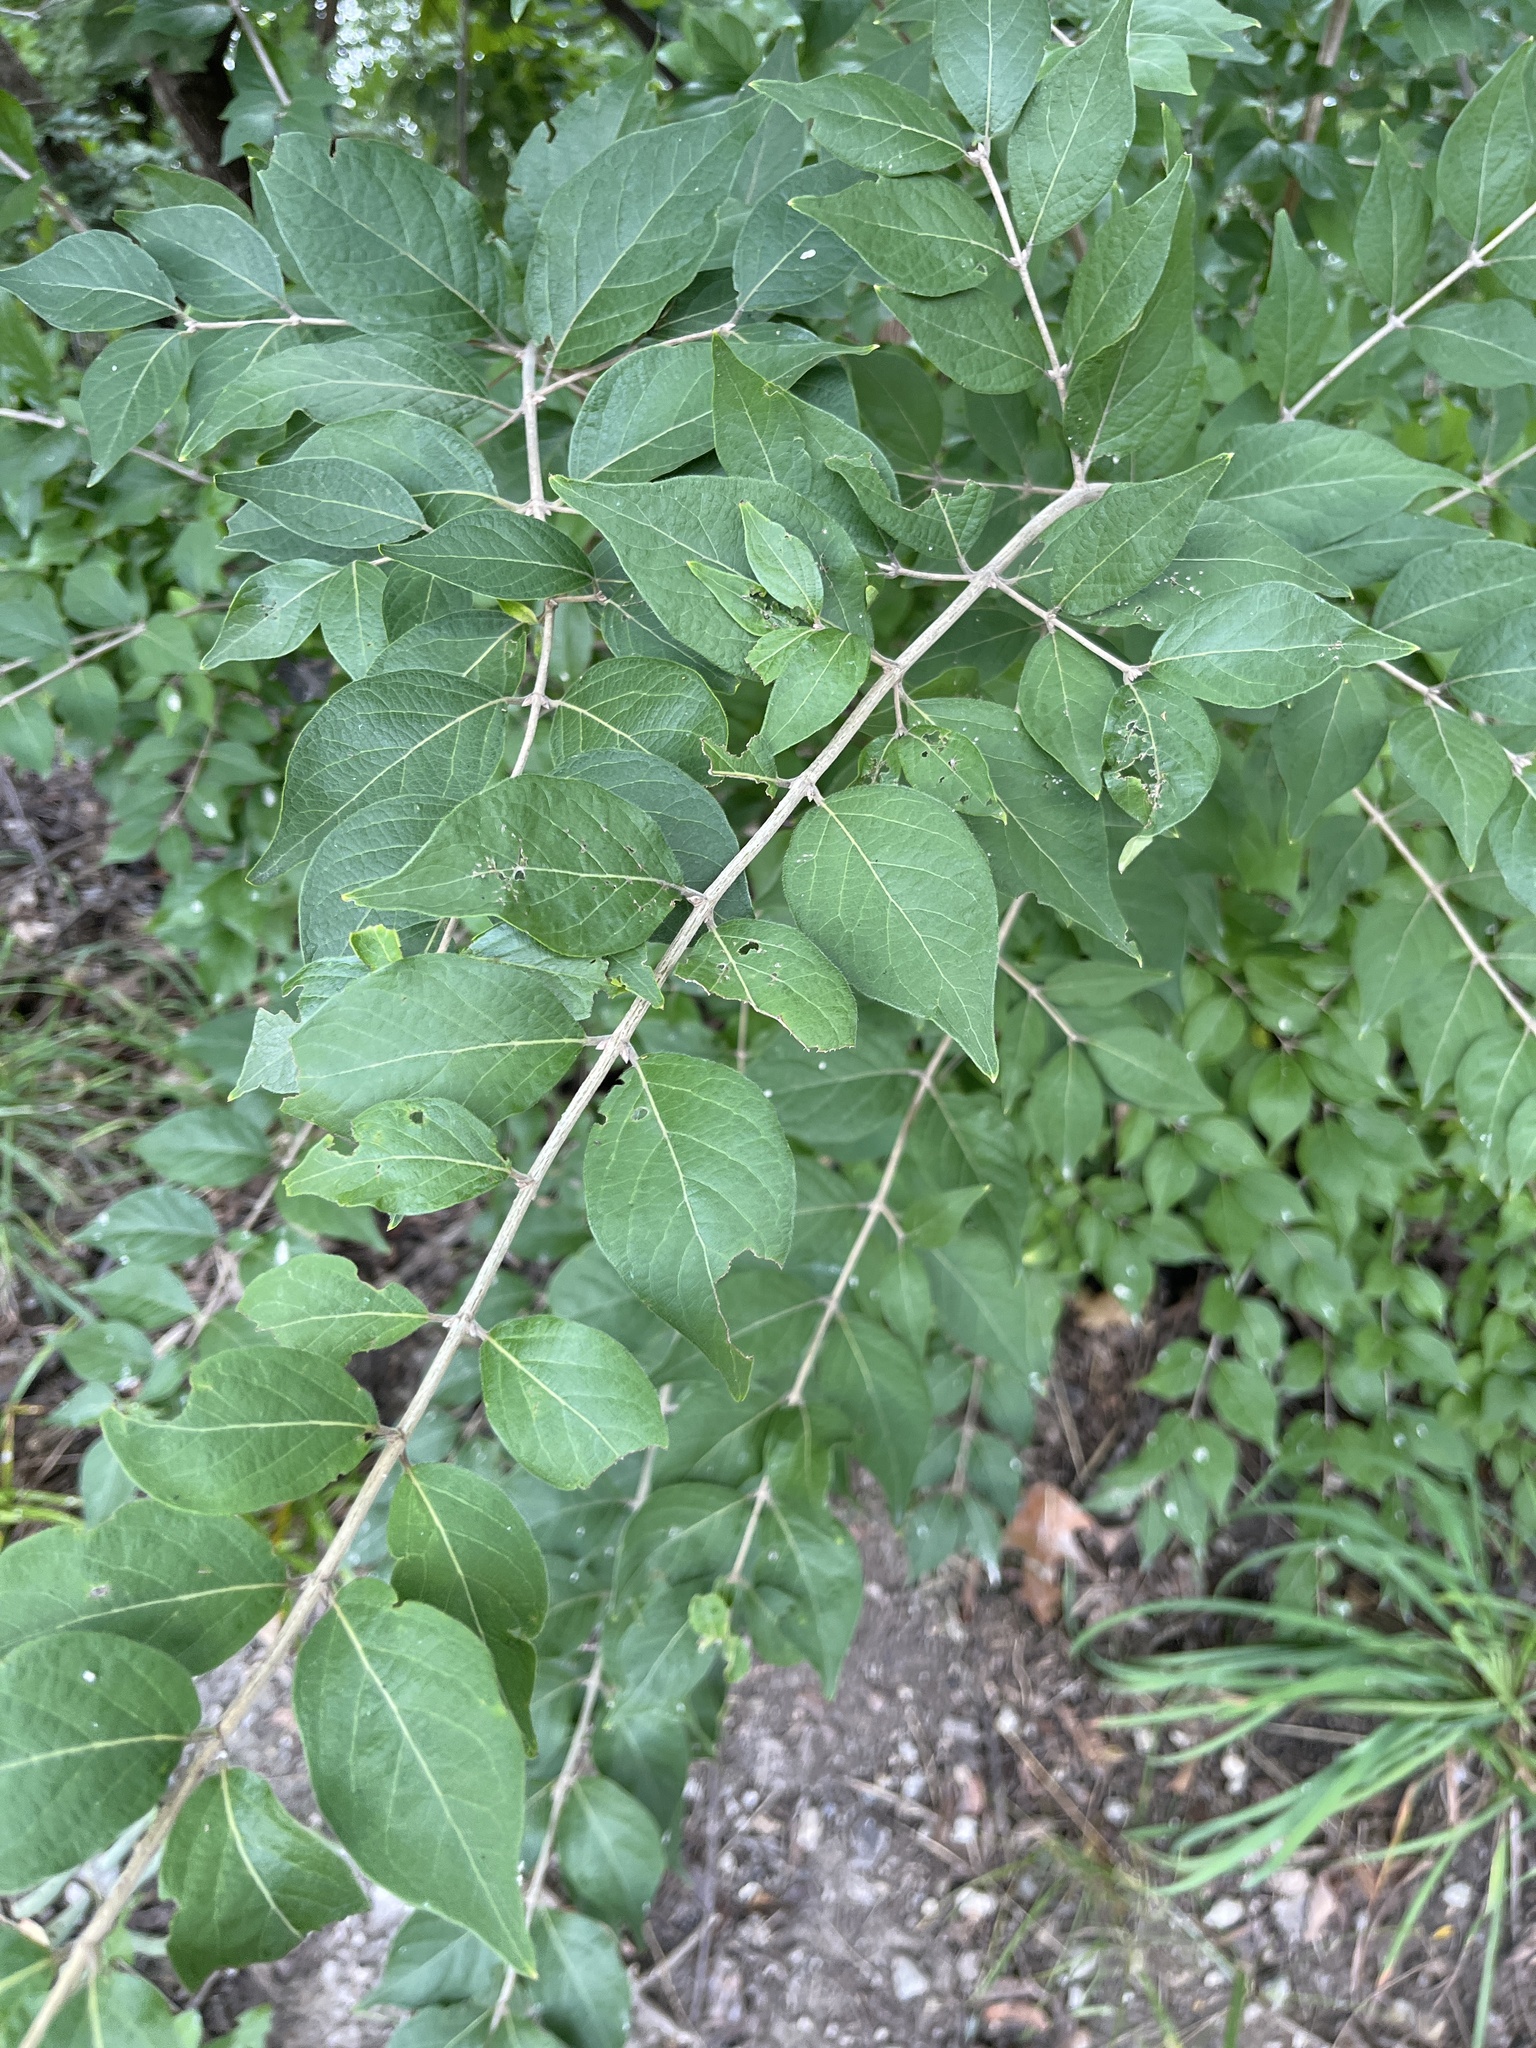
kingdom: Plantae
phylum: Tracheophyta
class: Magnoliopsida
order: Dipsacales
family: Caprifoliaceae
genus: Lonicera
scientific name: Lonicera maackii
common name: Amur honeysuckle
